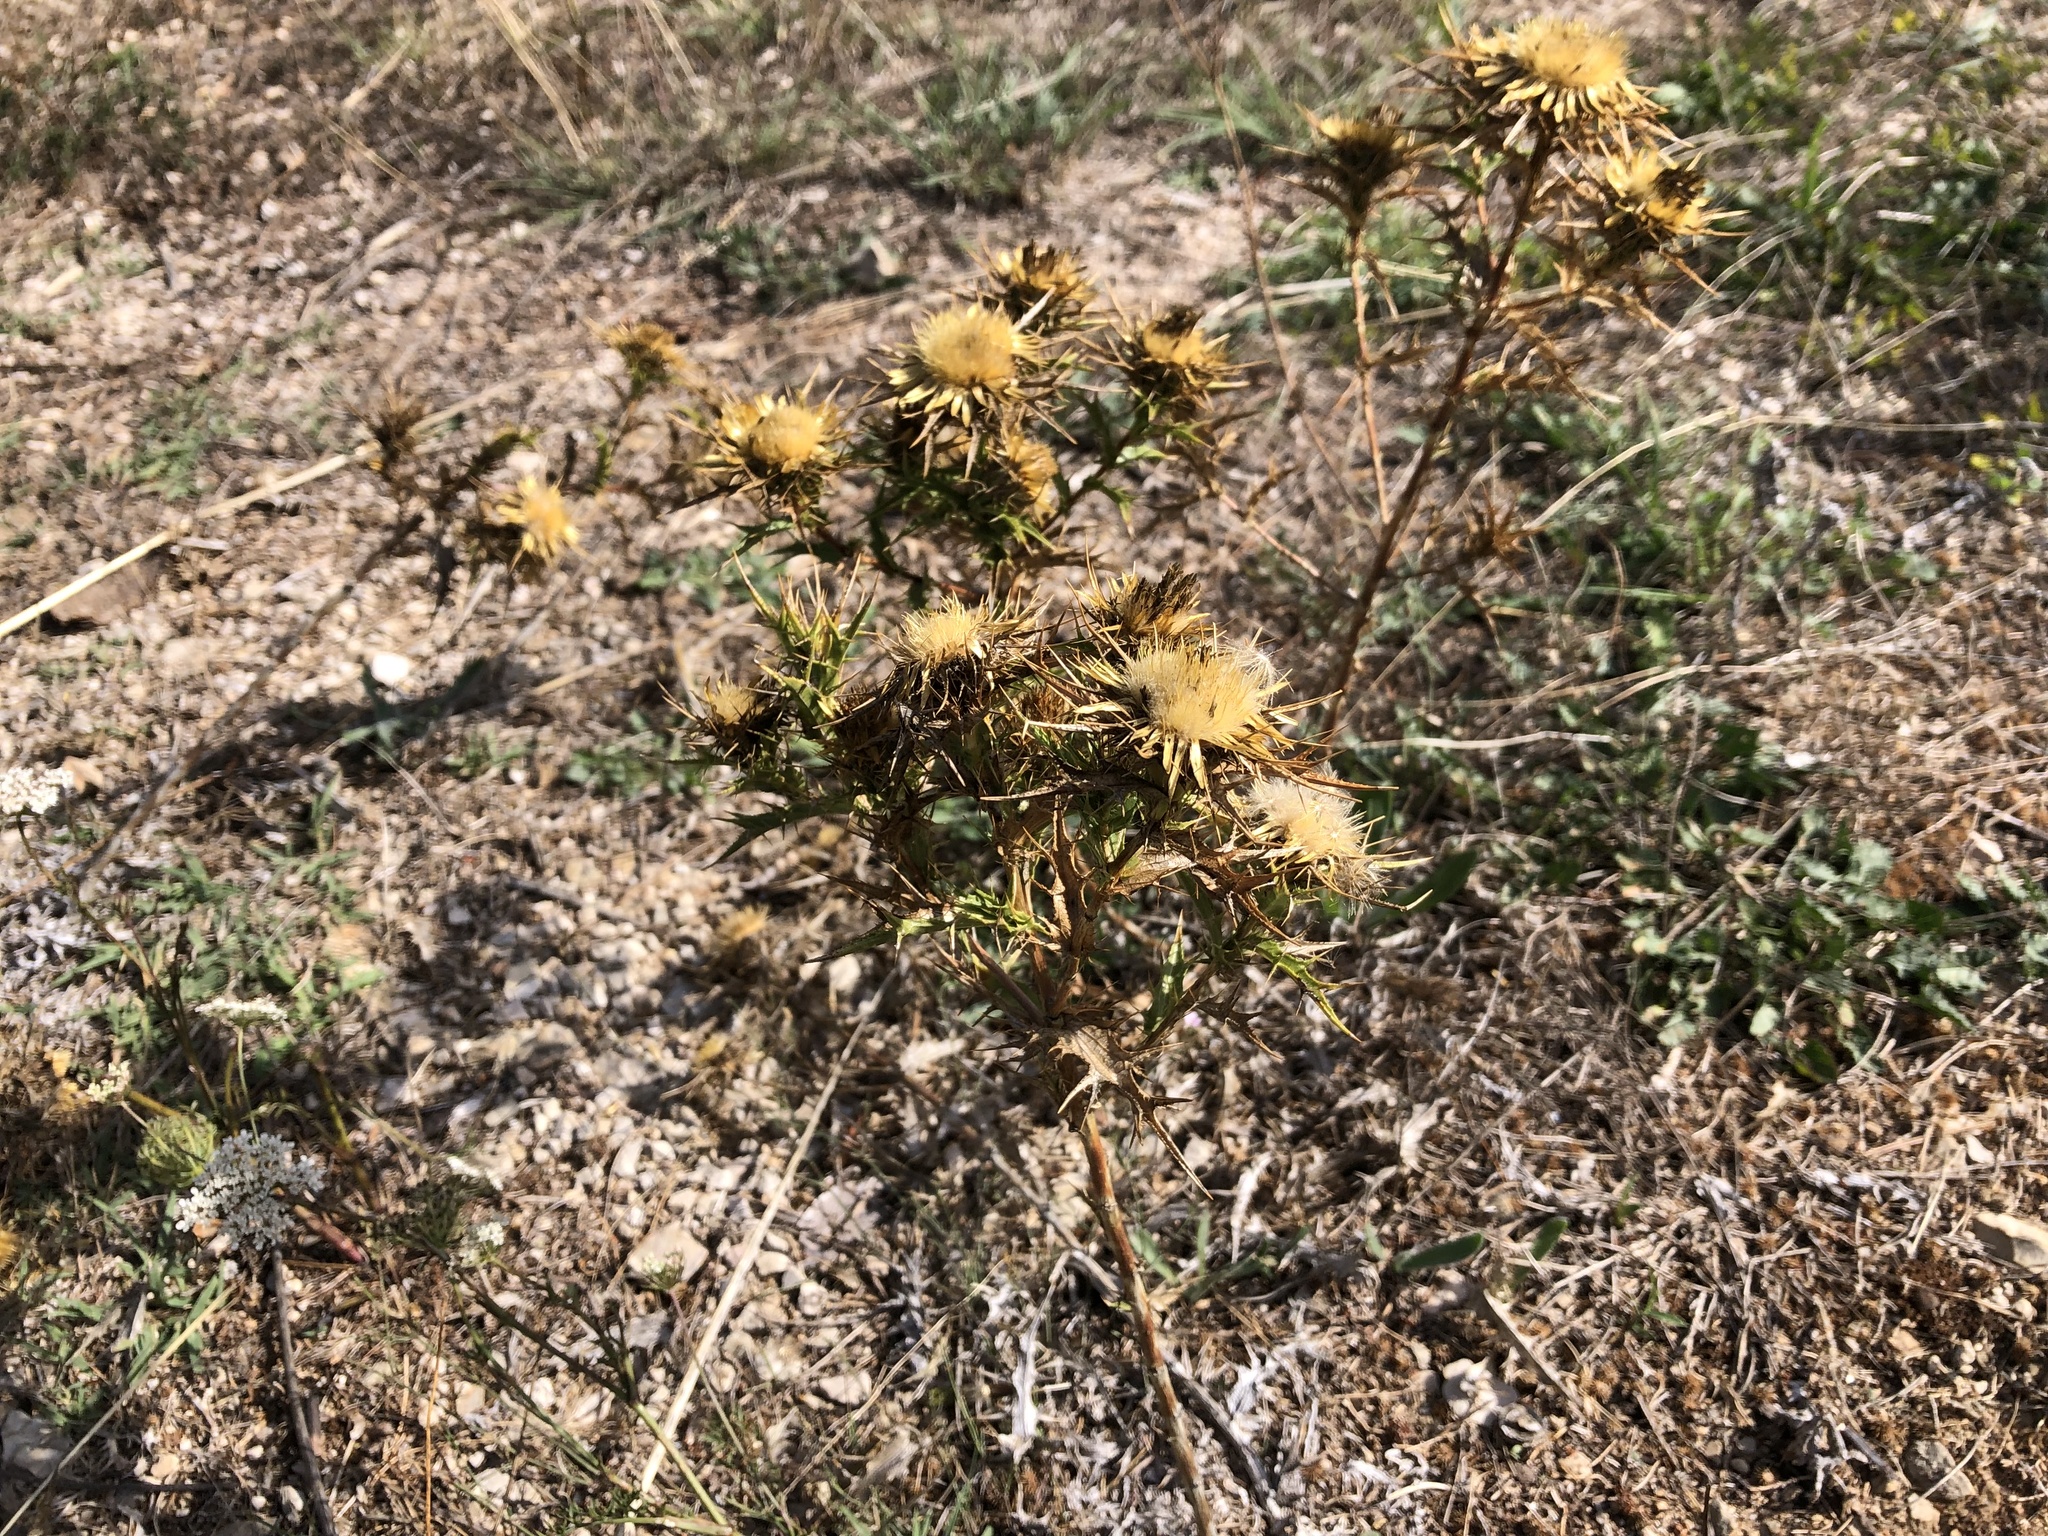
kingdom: Plantae
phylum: Tracheophyta
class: Magnoliopsida
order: Asterales
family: Asteraceae
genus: Carlina
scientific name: Carlina corymbosa
